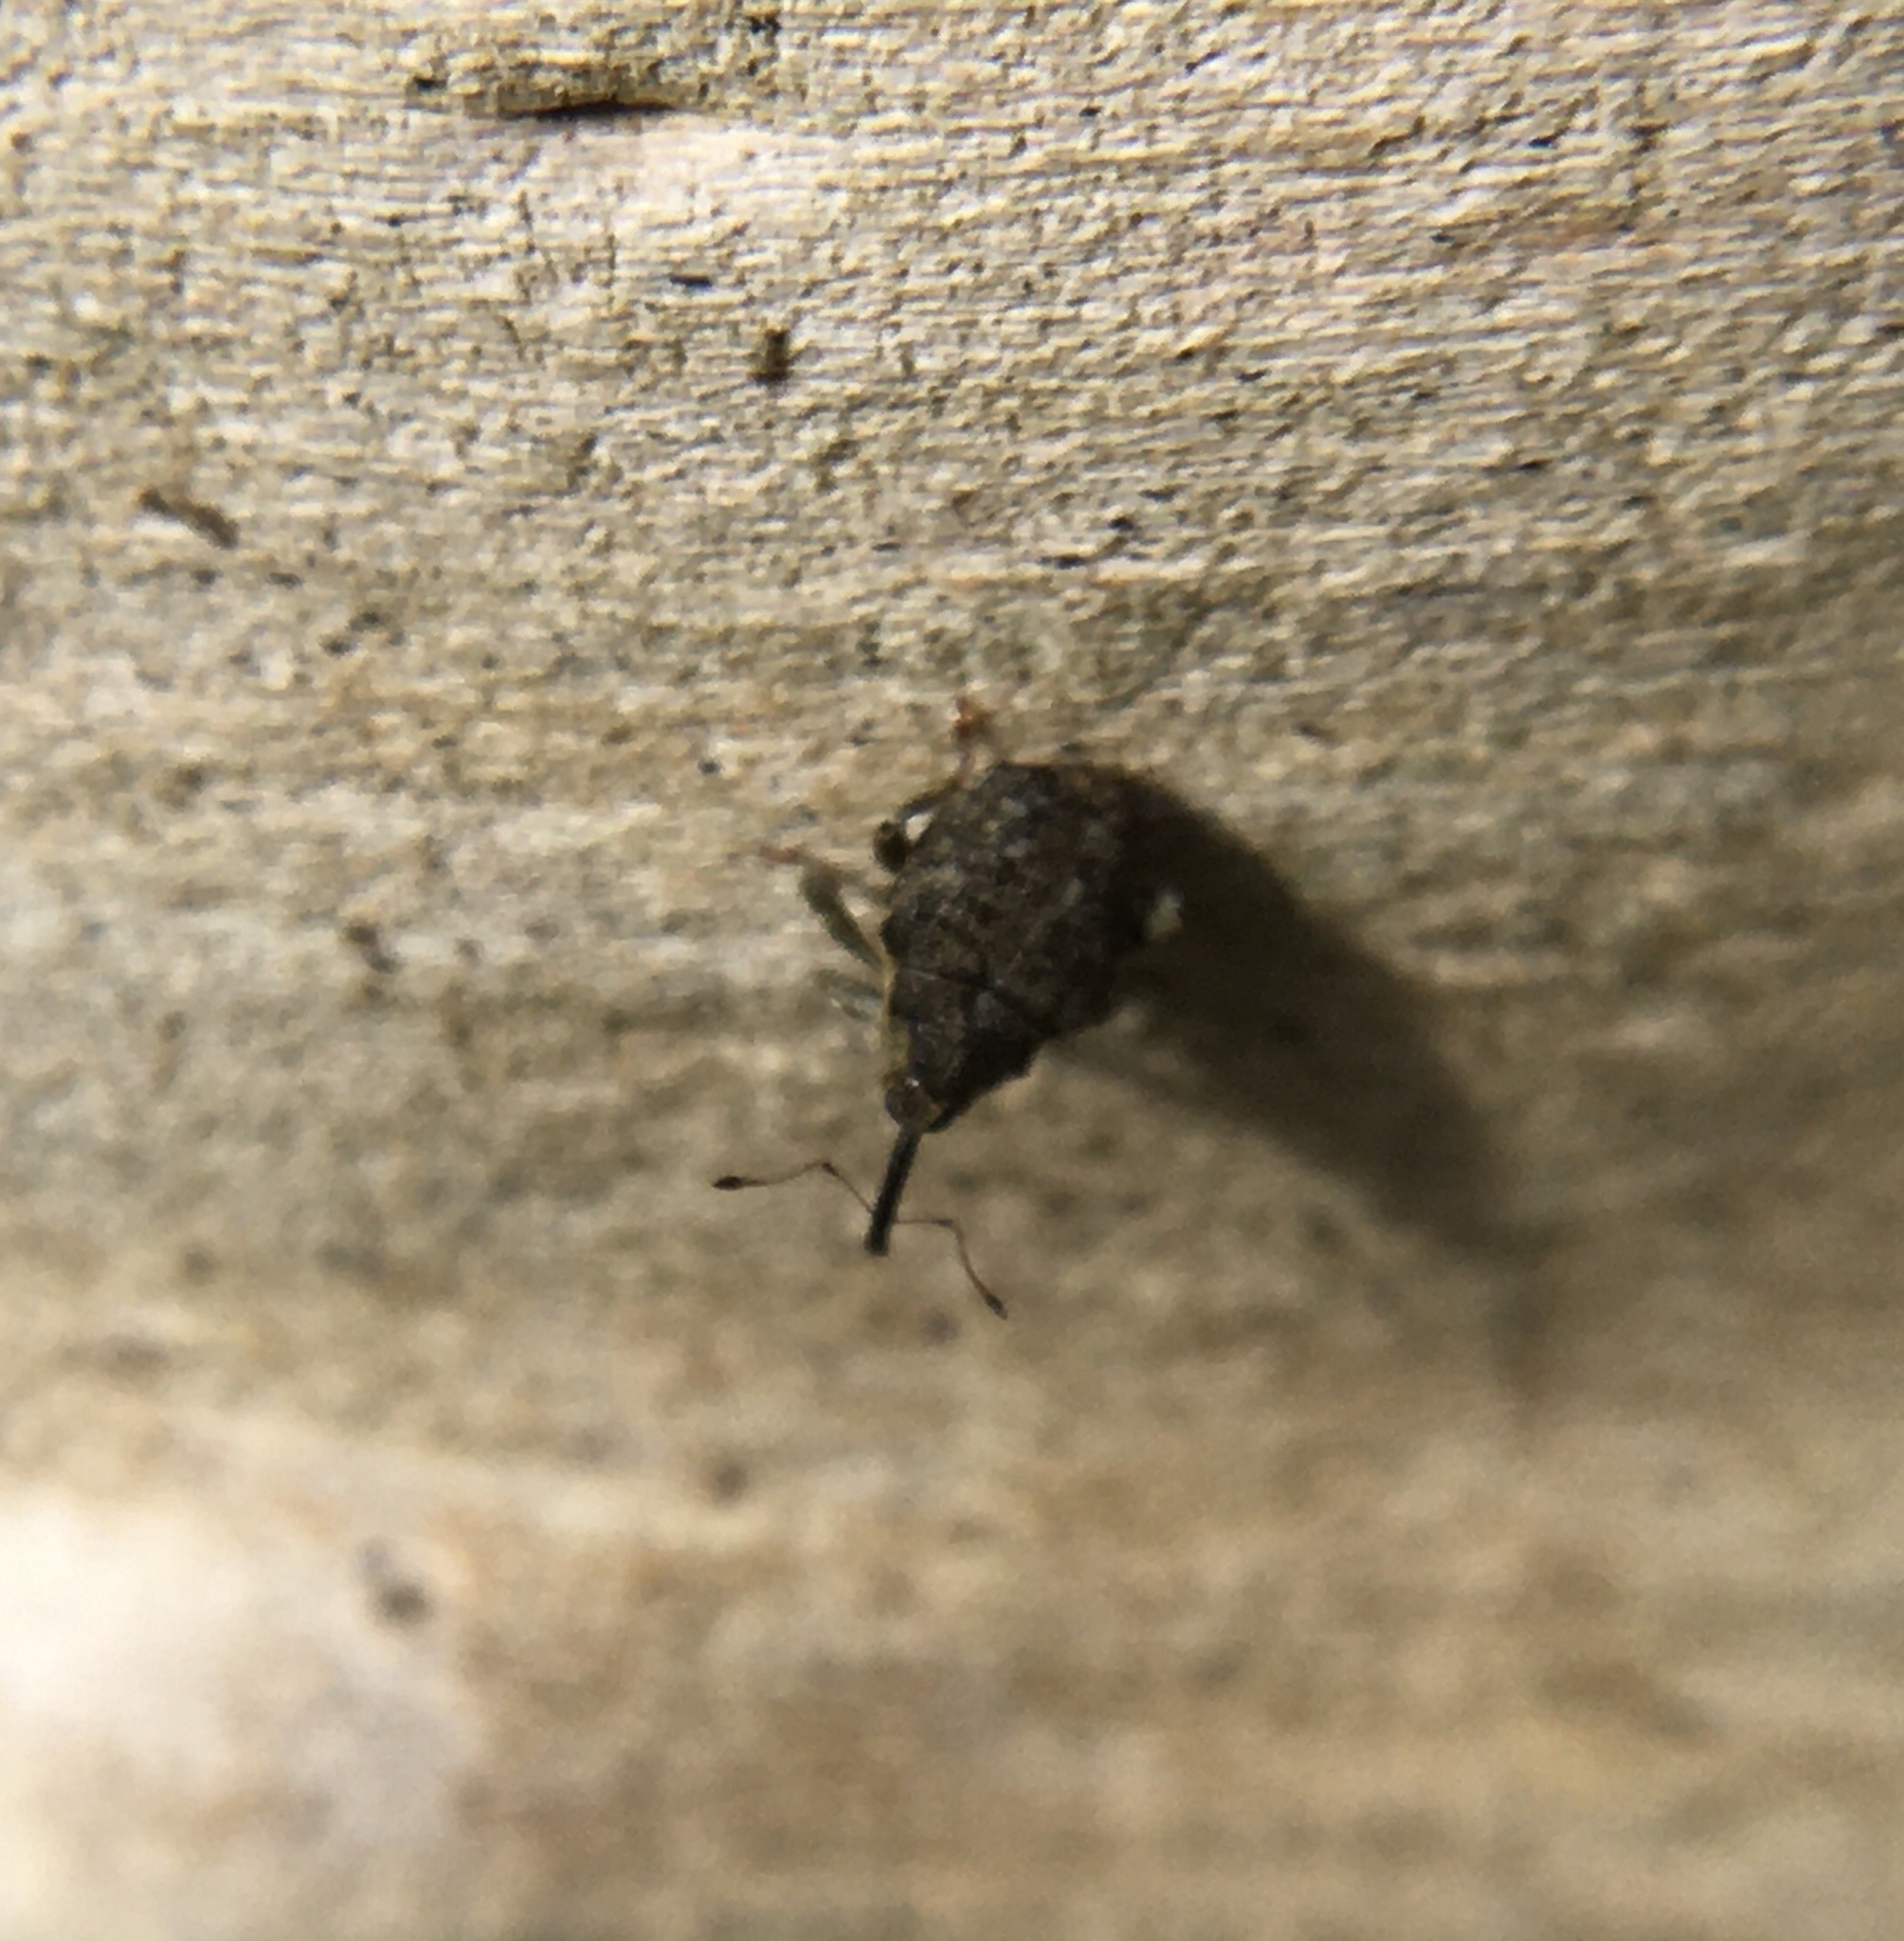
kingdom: Animalia
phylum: Arthropoda
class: Insecta
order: Coleoptera
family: Curculionidae
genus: Parethelcus
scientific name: Parethelcus pollinarius
